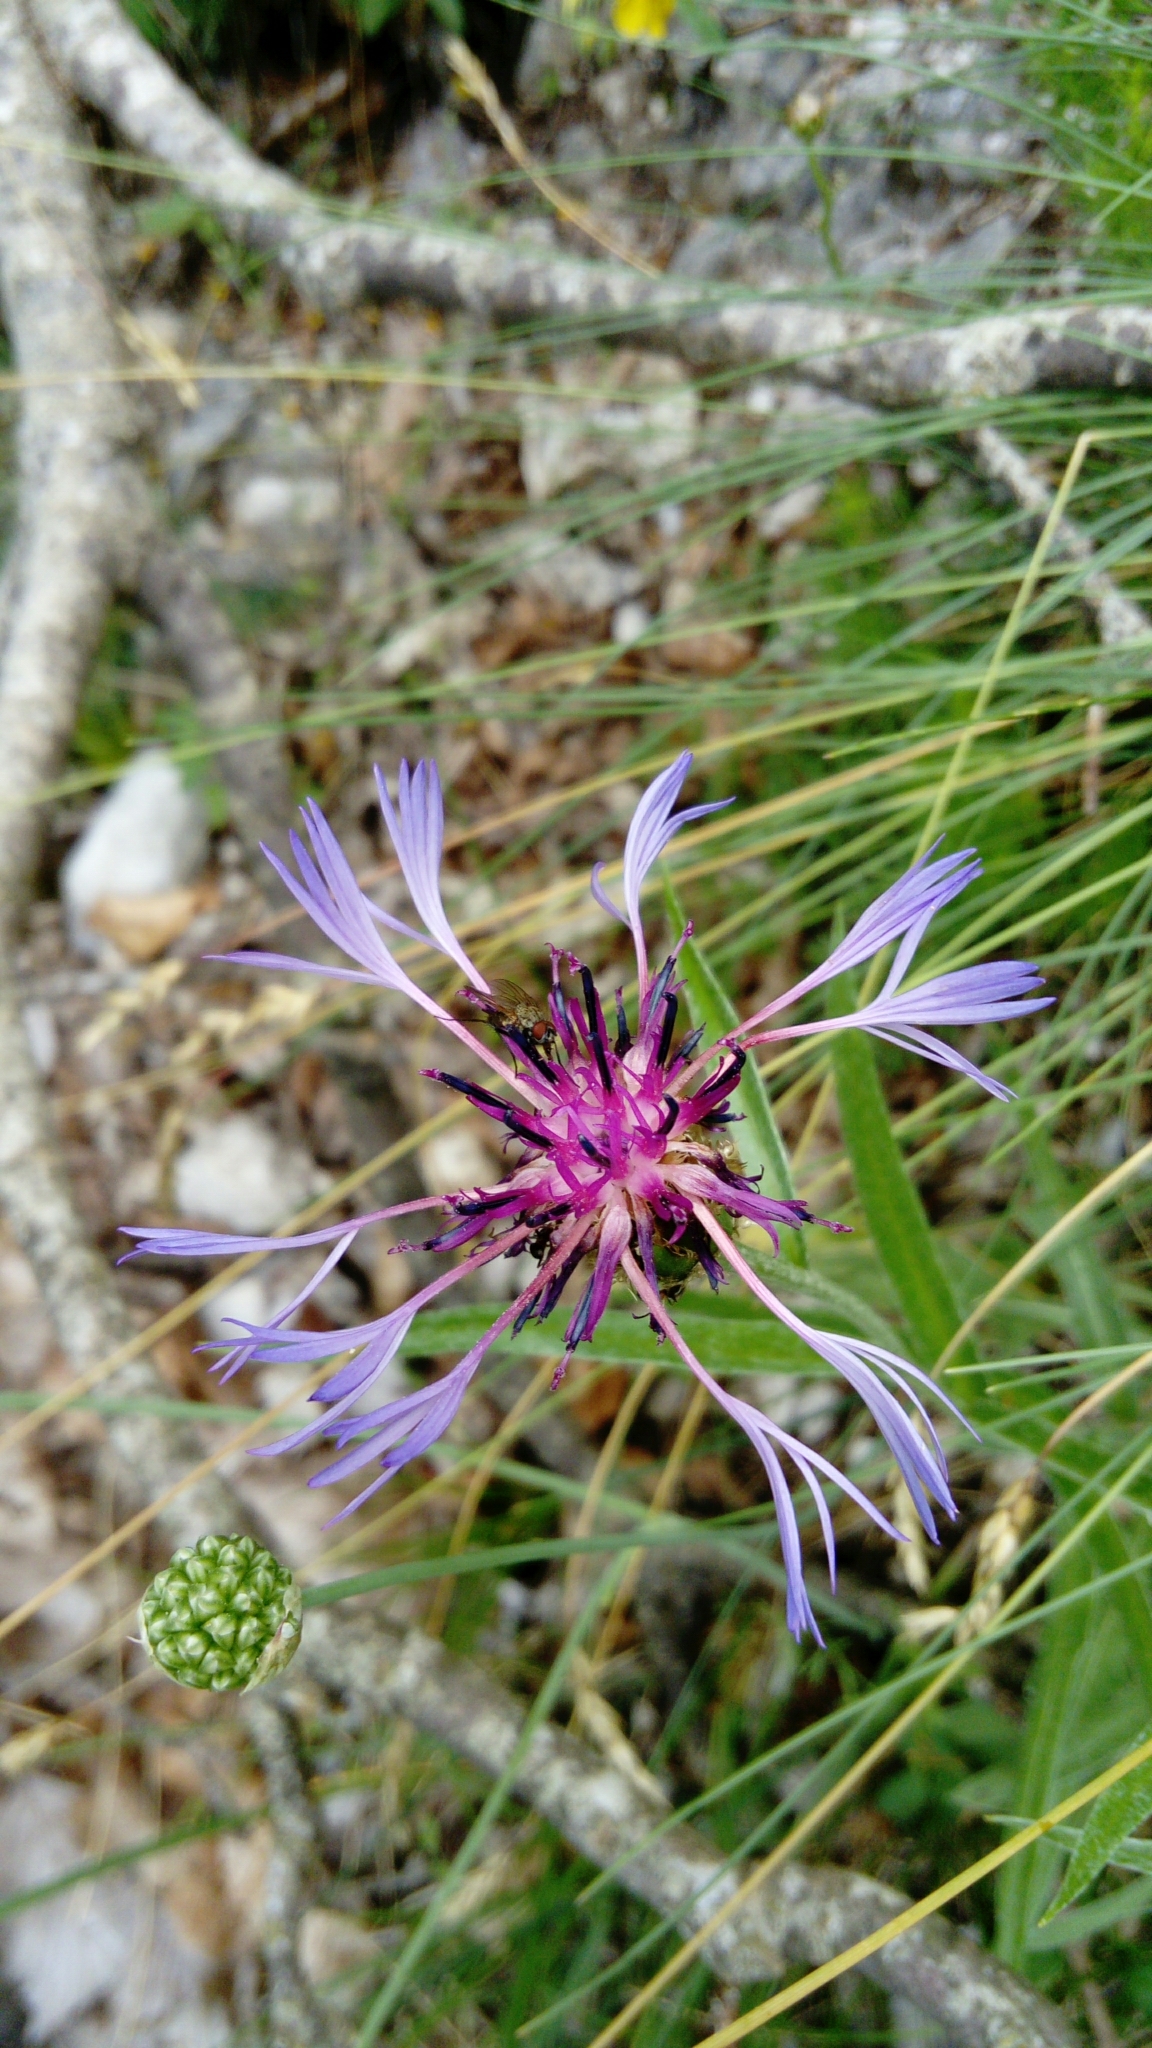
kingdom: Plantae
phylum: Tracheophyta
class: Magnoliopsida
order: Asterales
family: Asteraceae
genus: Centaurea
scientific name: Centaurea triumfettii
